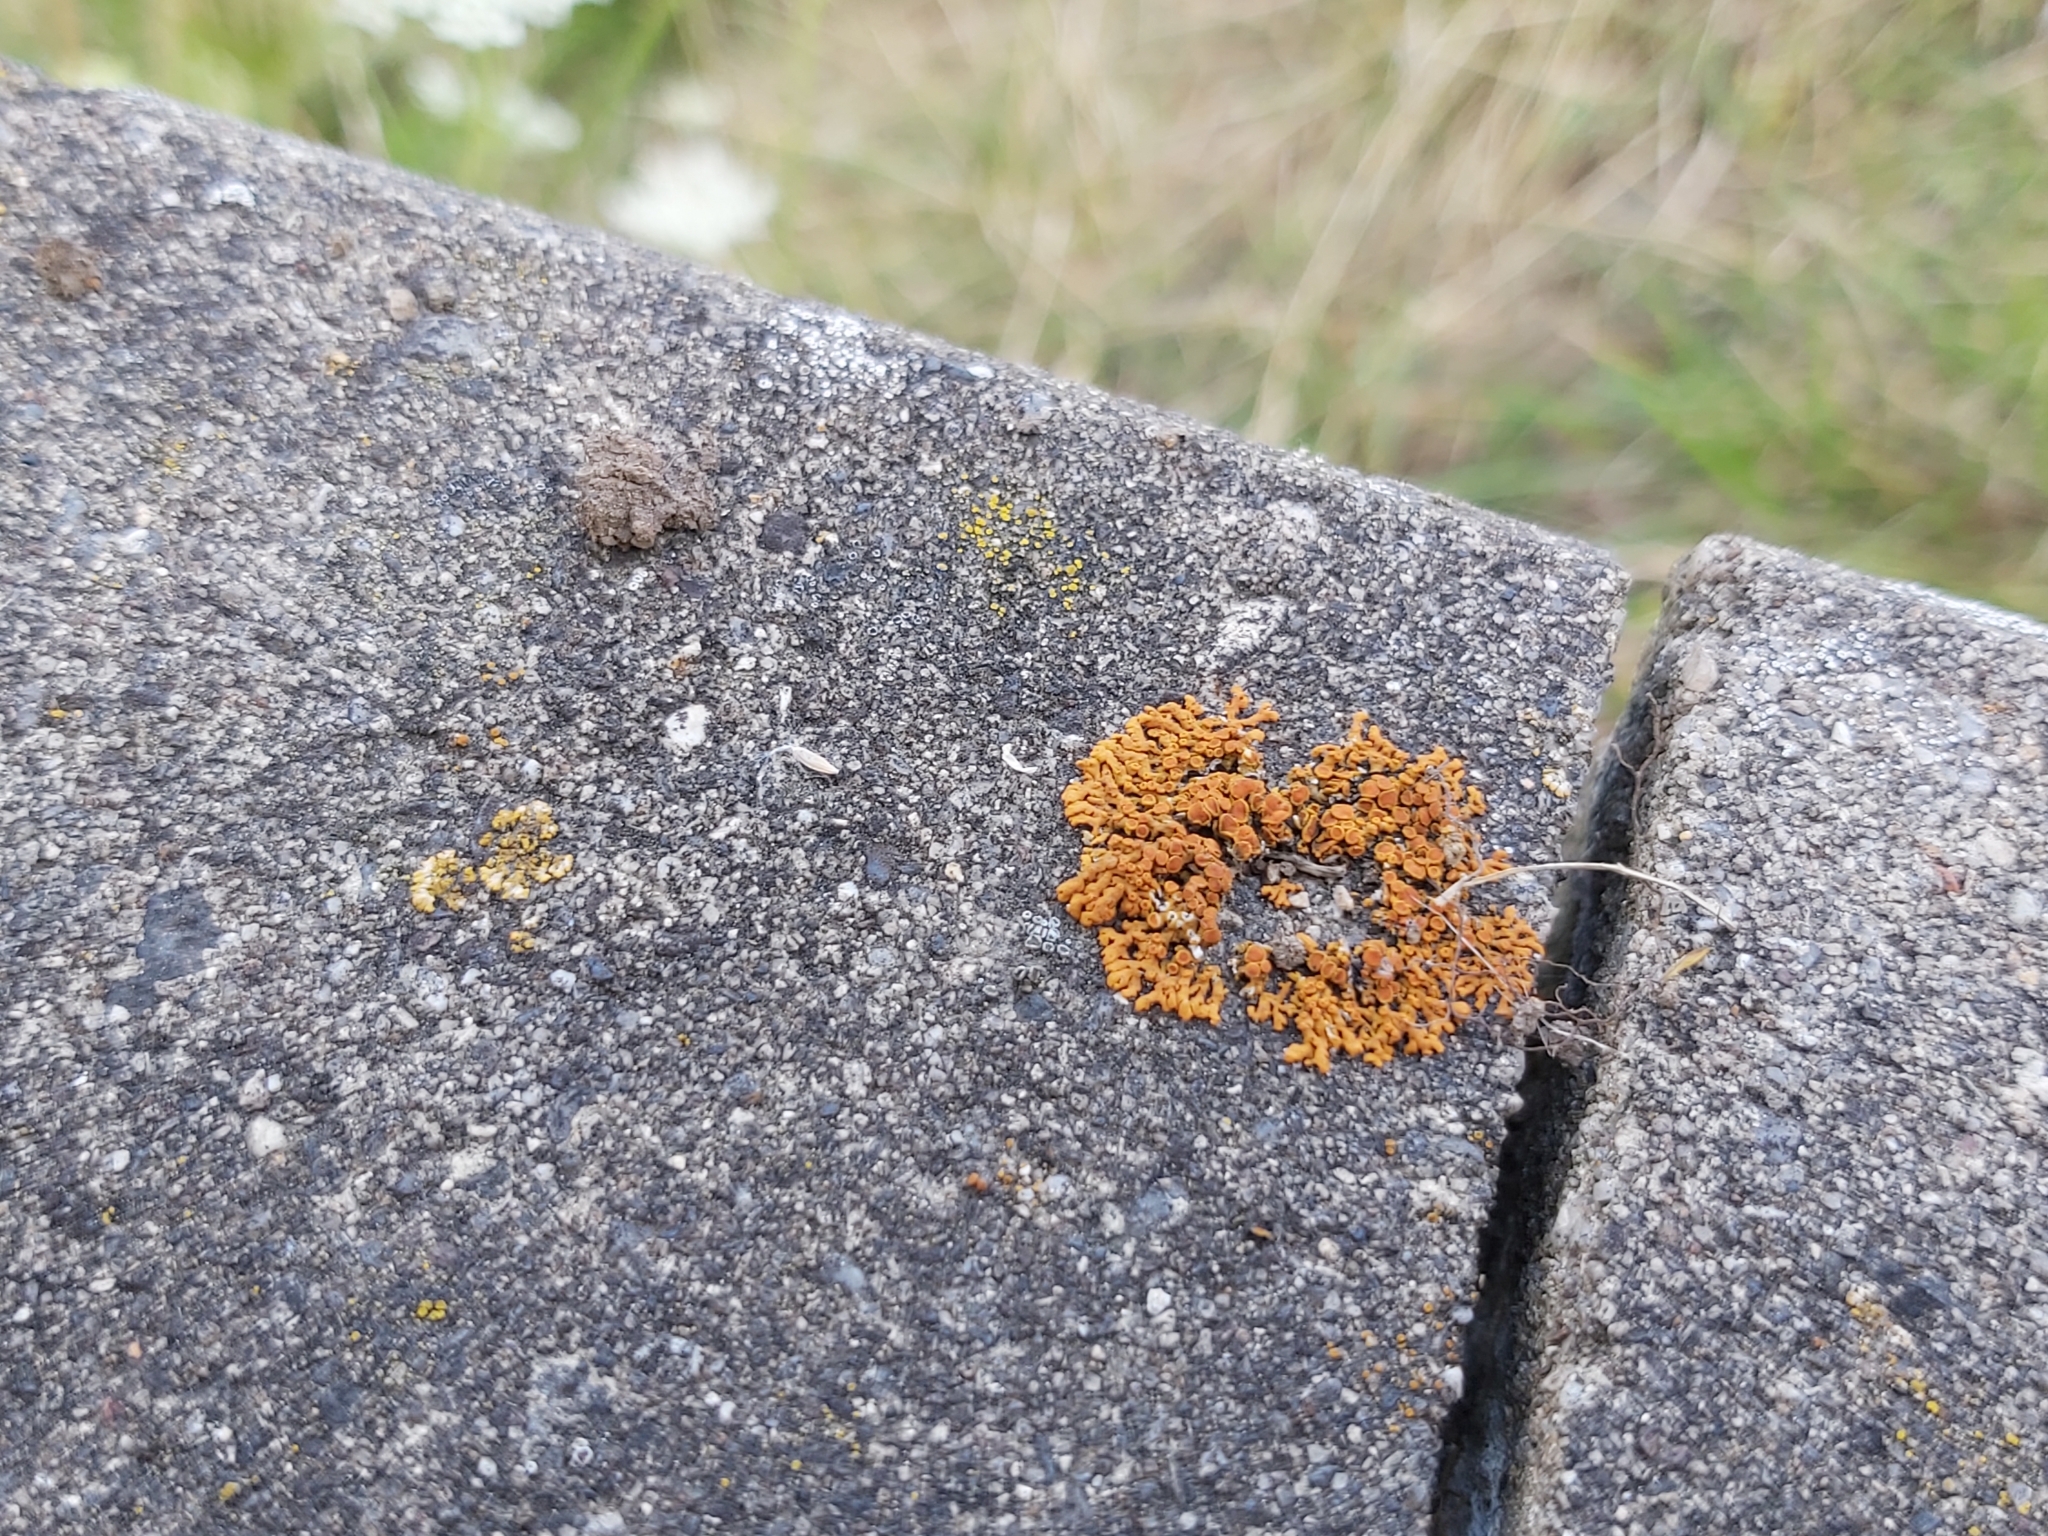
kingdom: Fungi
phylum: Ascomycota
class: Lecanoromycetes
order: Teloschistales
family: Teloschistaceae
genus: Xanthoria
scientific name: Xanthoria elegans
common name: Elegant sunburst lichen
